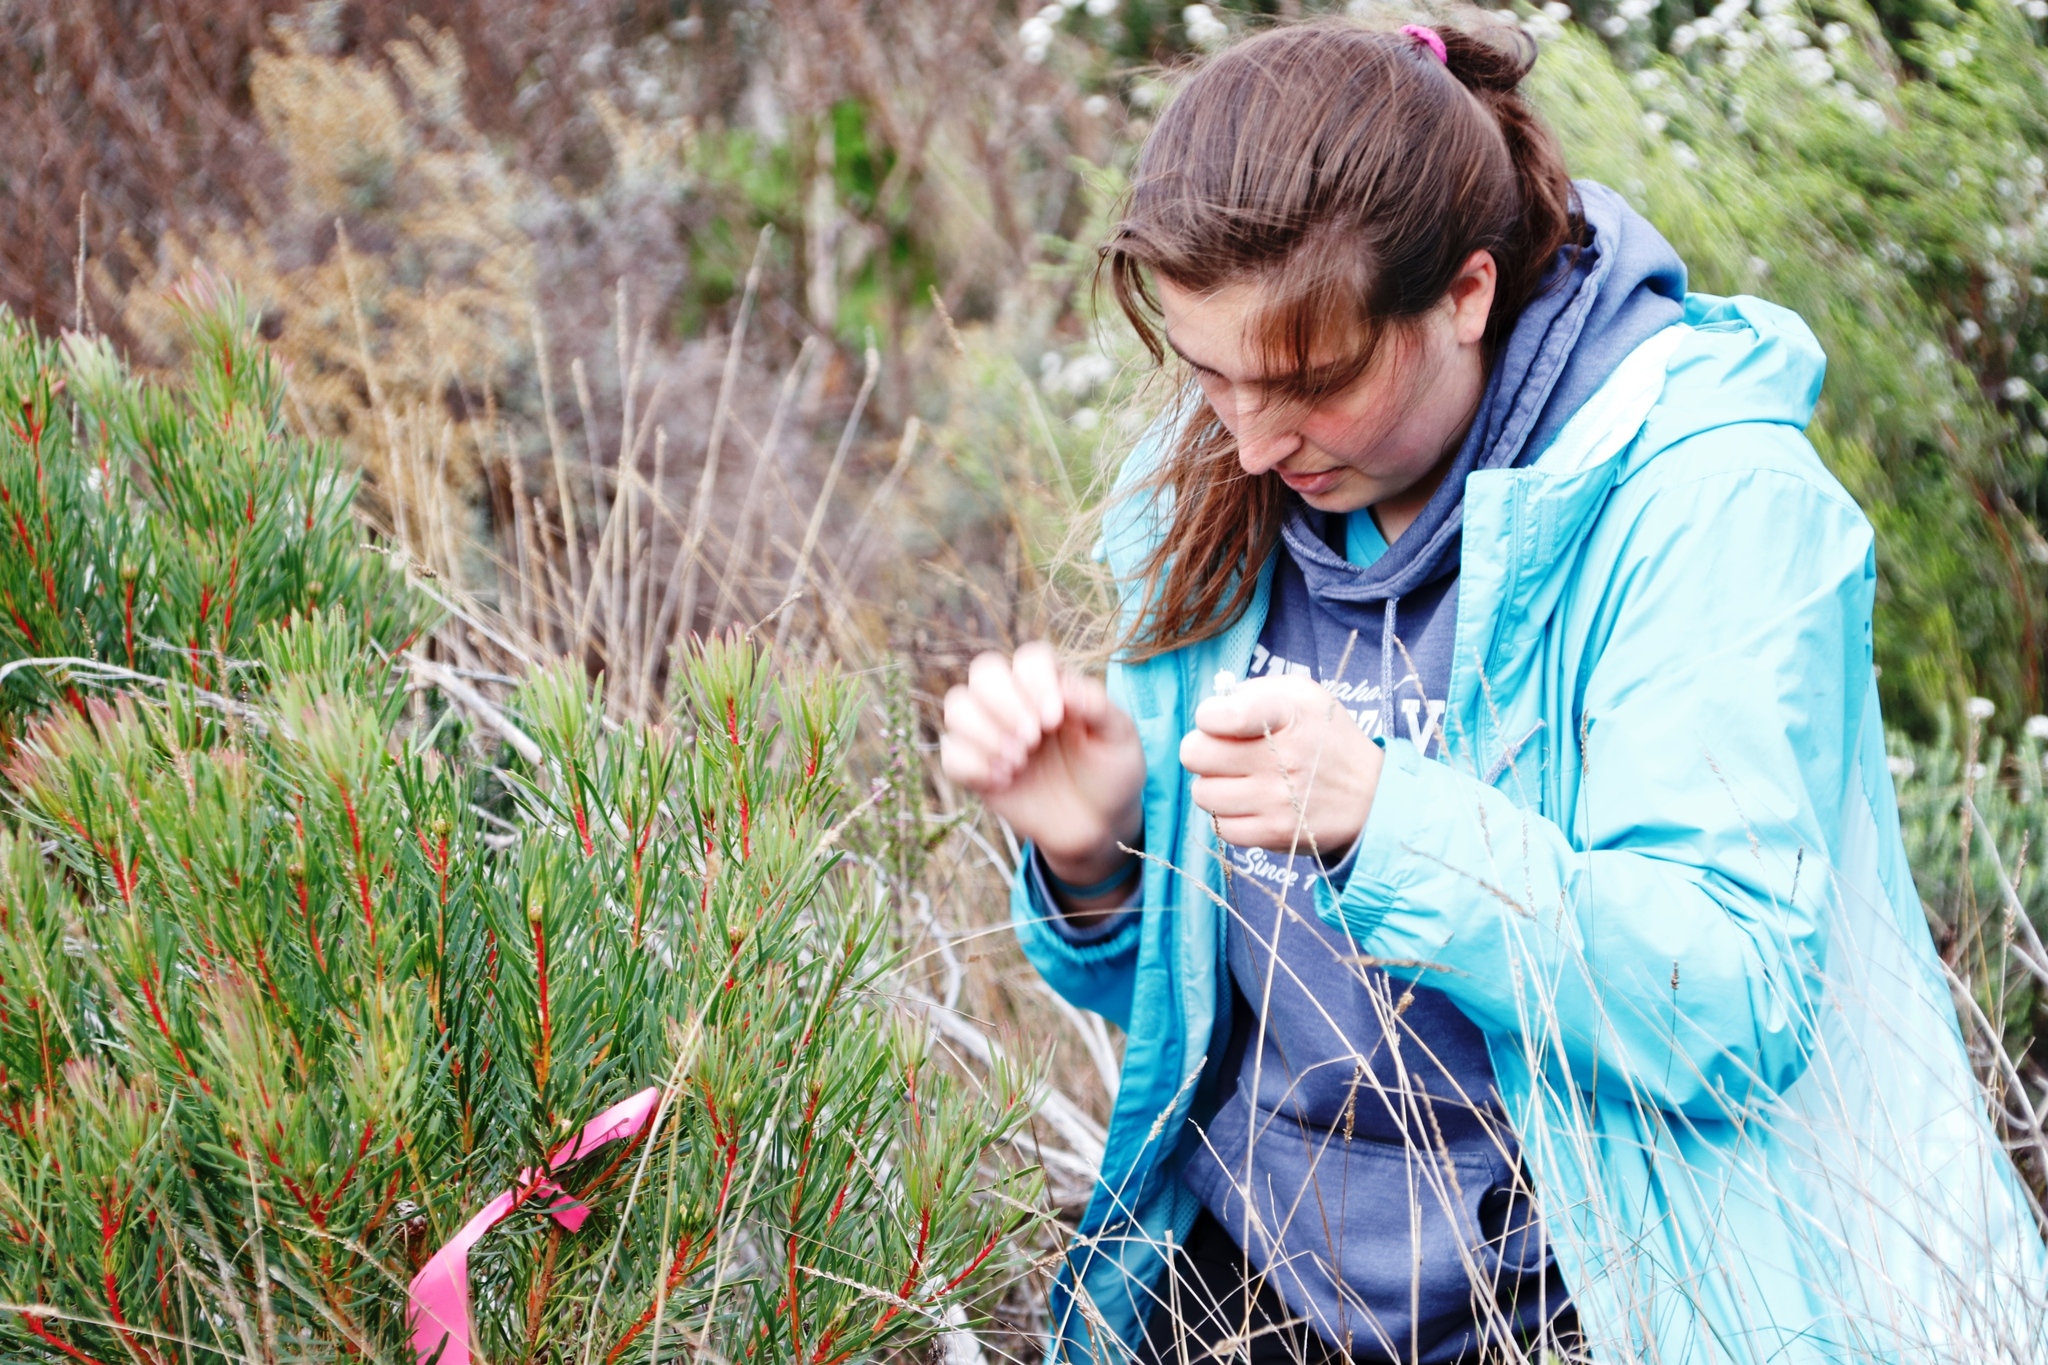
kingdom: Plantae
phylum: Tracheophyta
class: Magnoliopsida
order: Proteales
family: Proteaceae
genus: Protea
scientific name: Protea scolymocephala
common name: Thistle sugarbush
